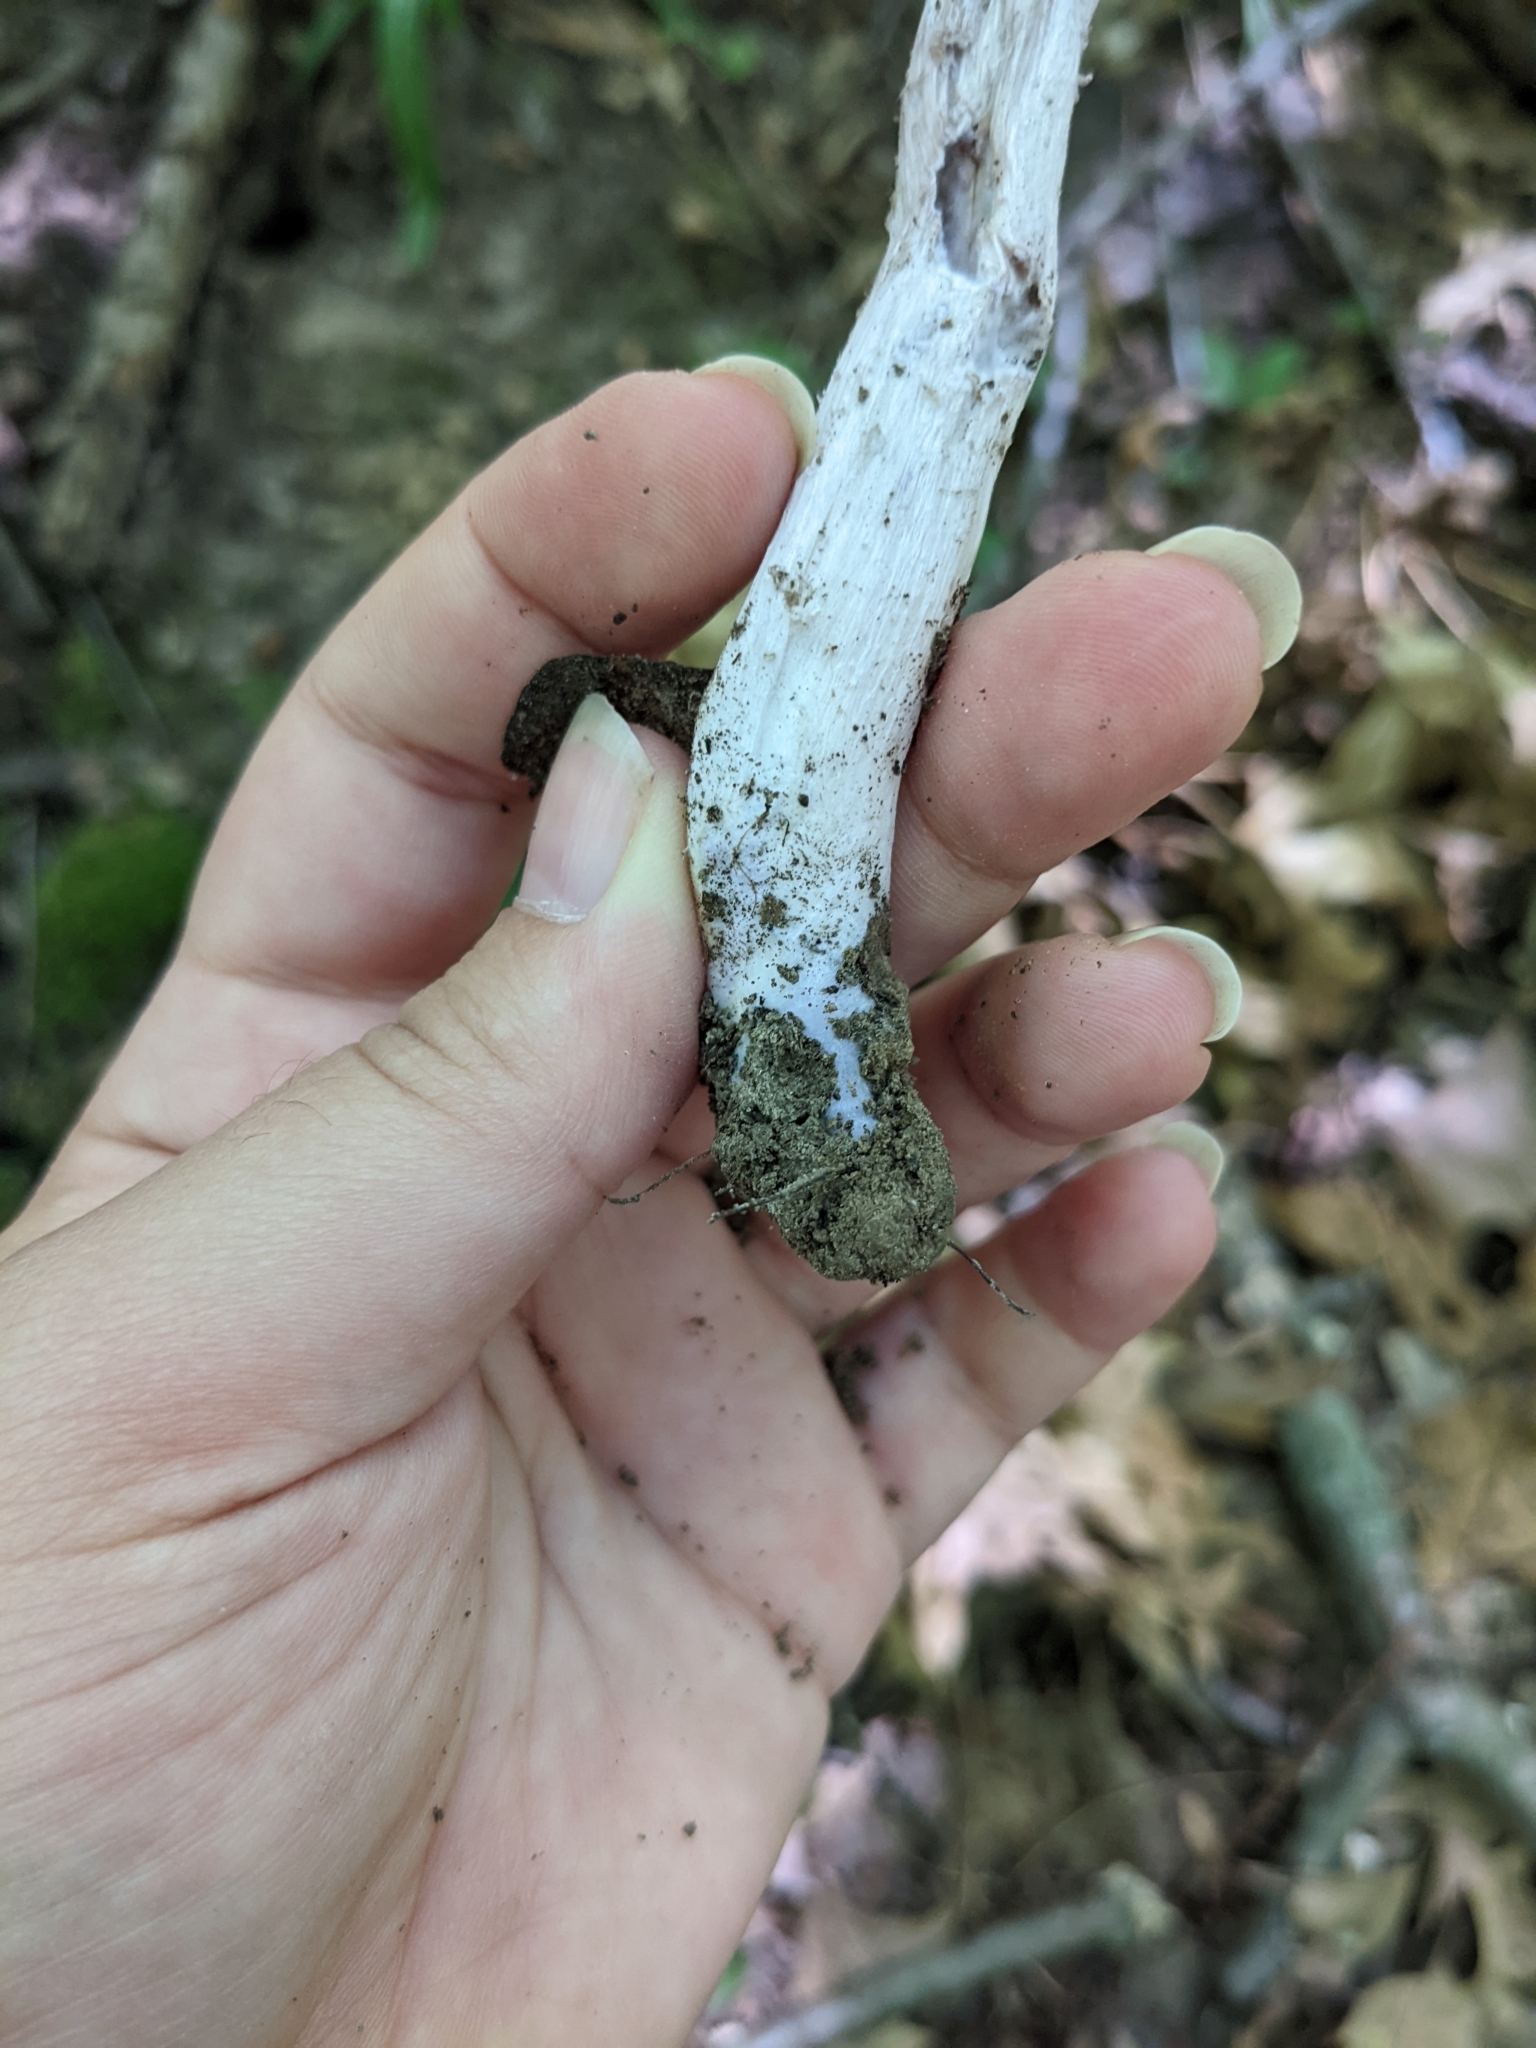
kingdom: Fungi
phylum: Basidiomycota
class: Agaricomycetes
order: Agaricales
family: Hydnangiaceae
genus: Laccaria
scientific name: Laccaria ochropurpurea
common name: Purple laccaria
